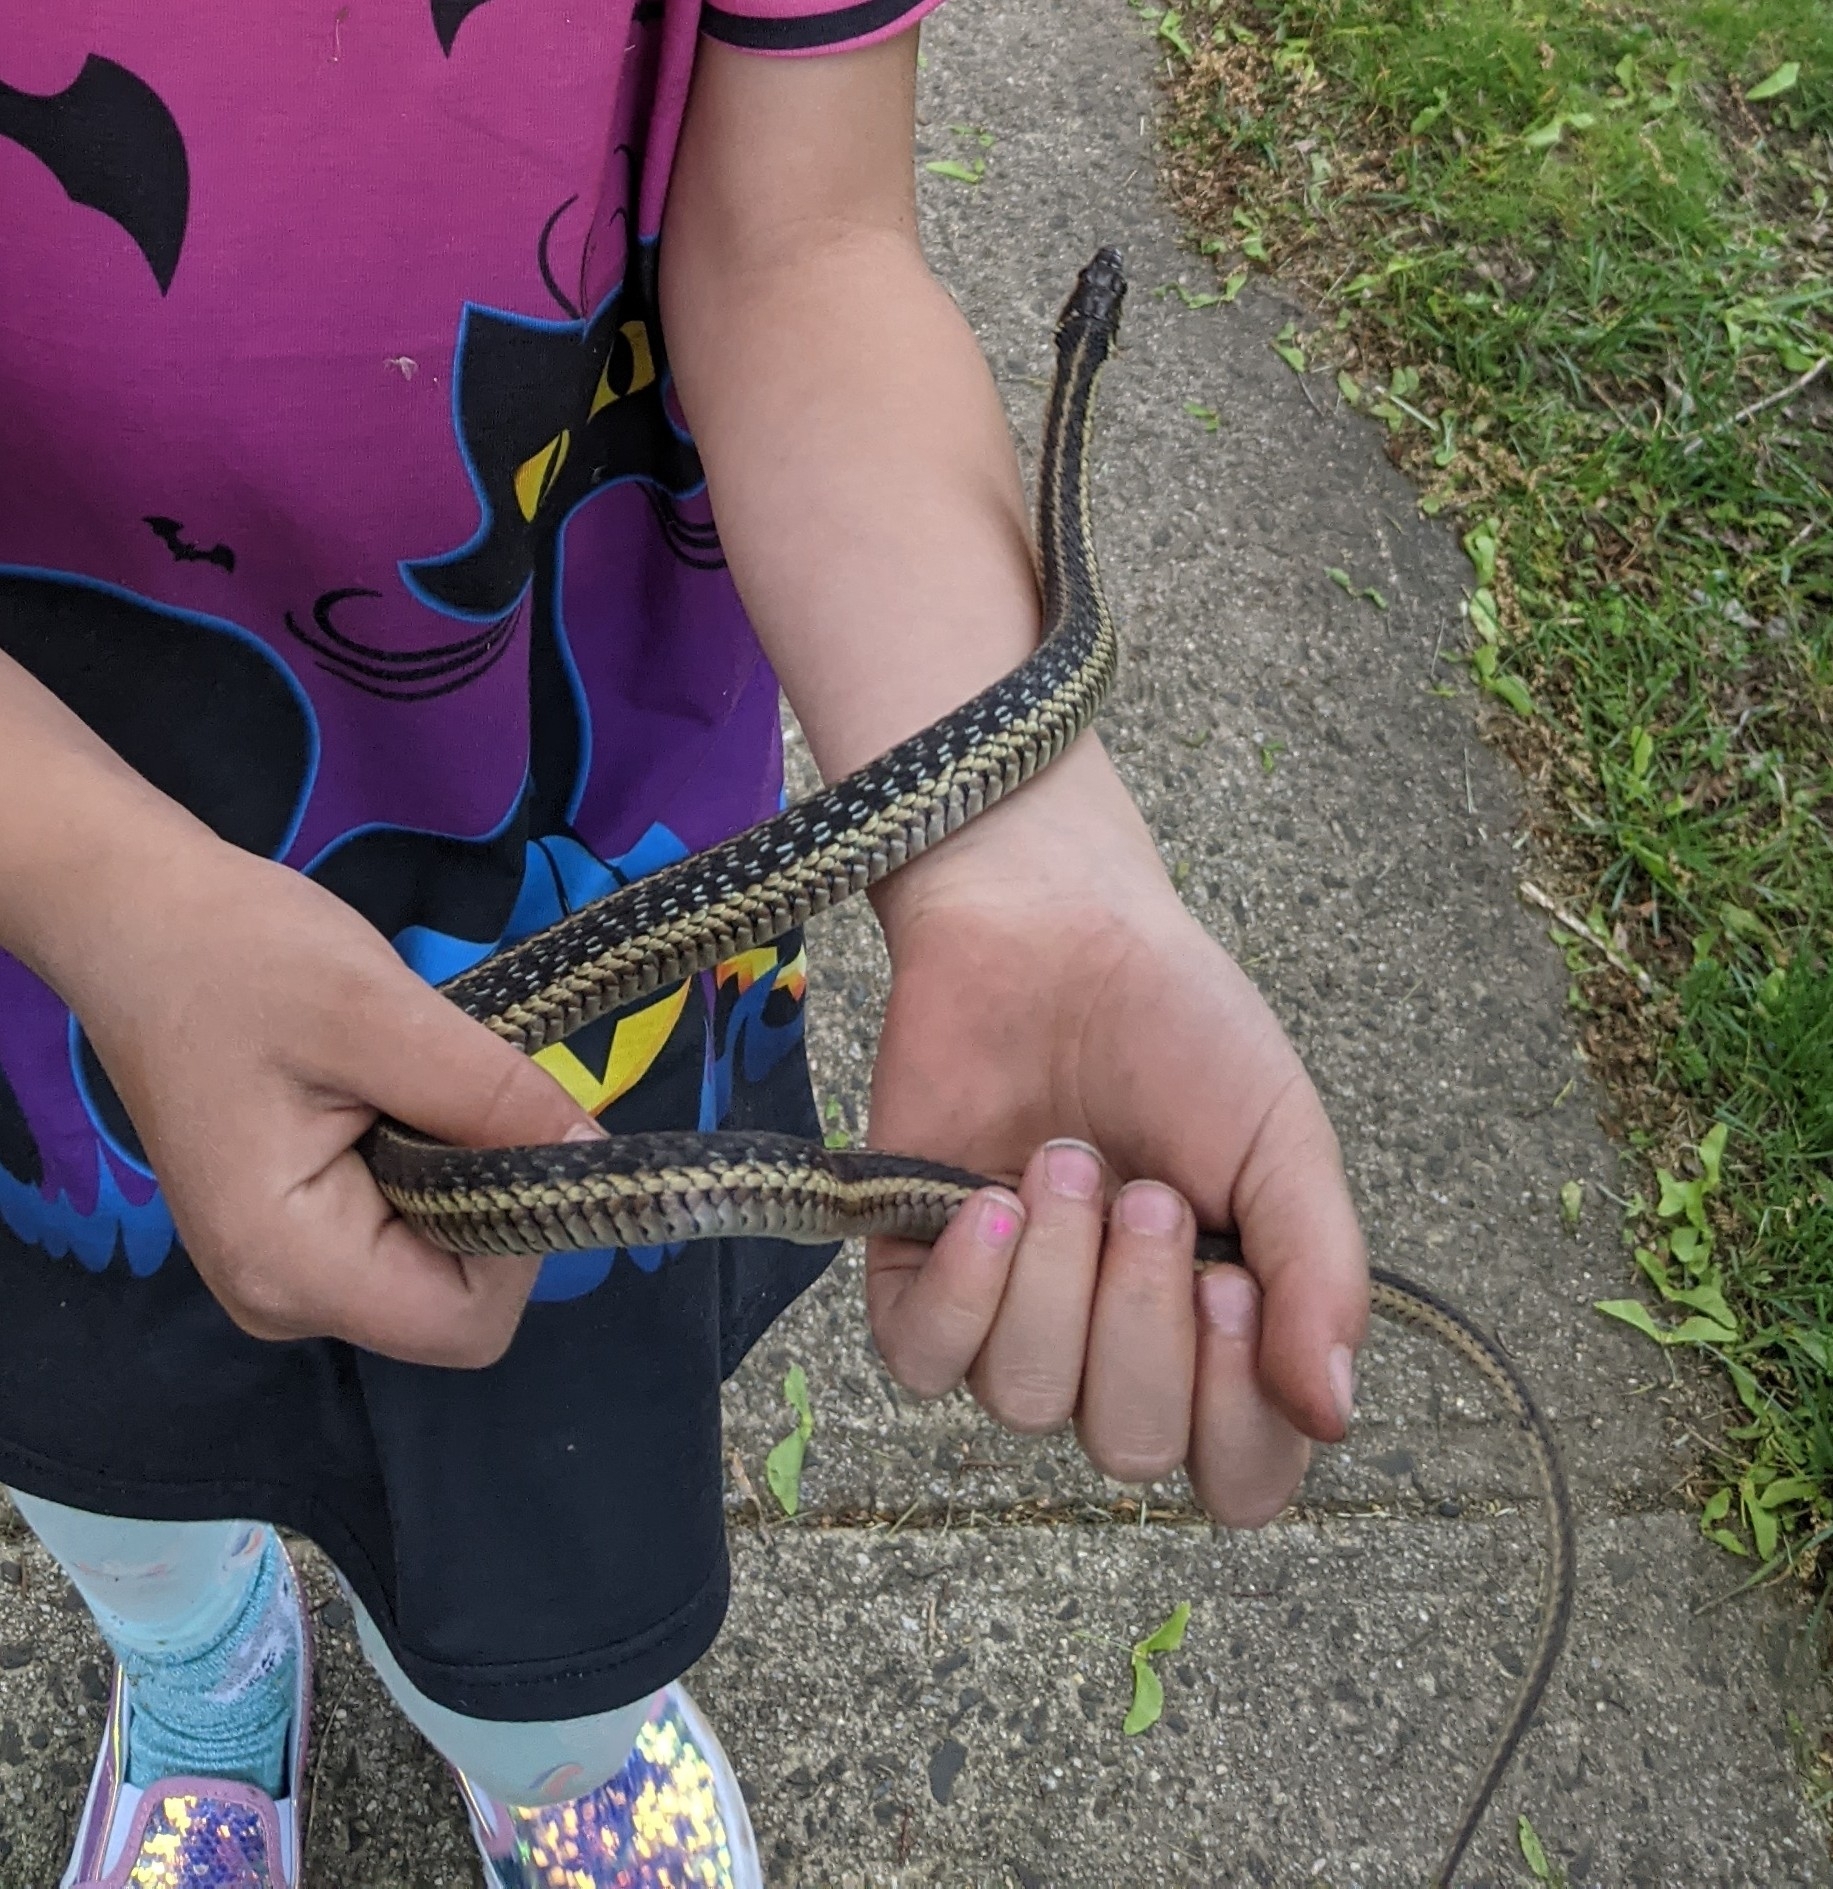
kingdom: Animalia
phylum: Chordata
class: Squamata
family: Colubridae
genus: Thamnophis
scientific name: Thamnophis sirtalis
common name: Common garter snake
